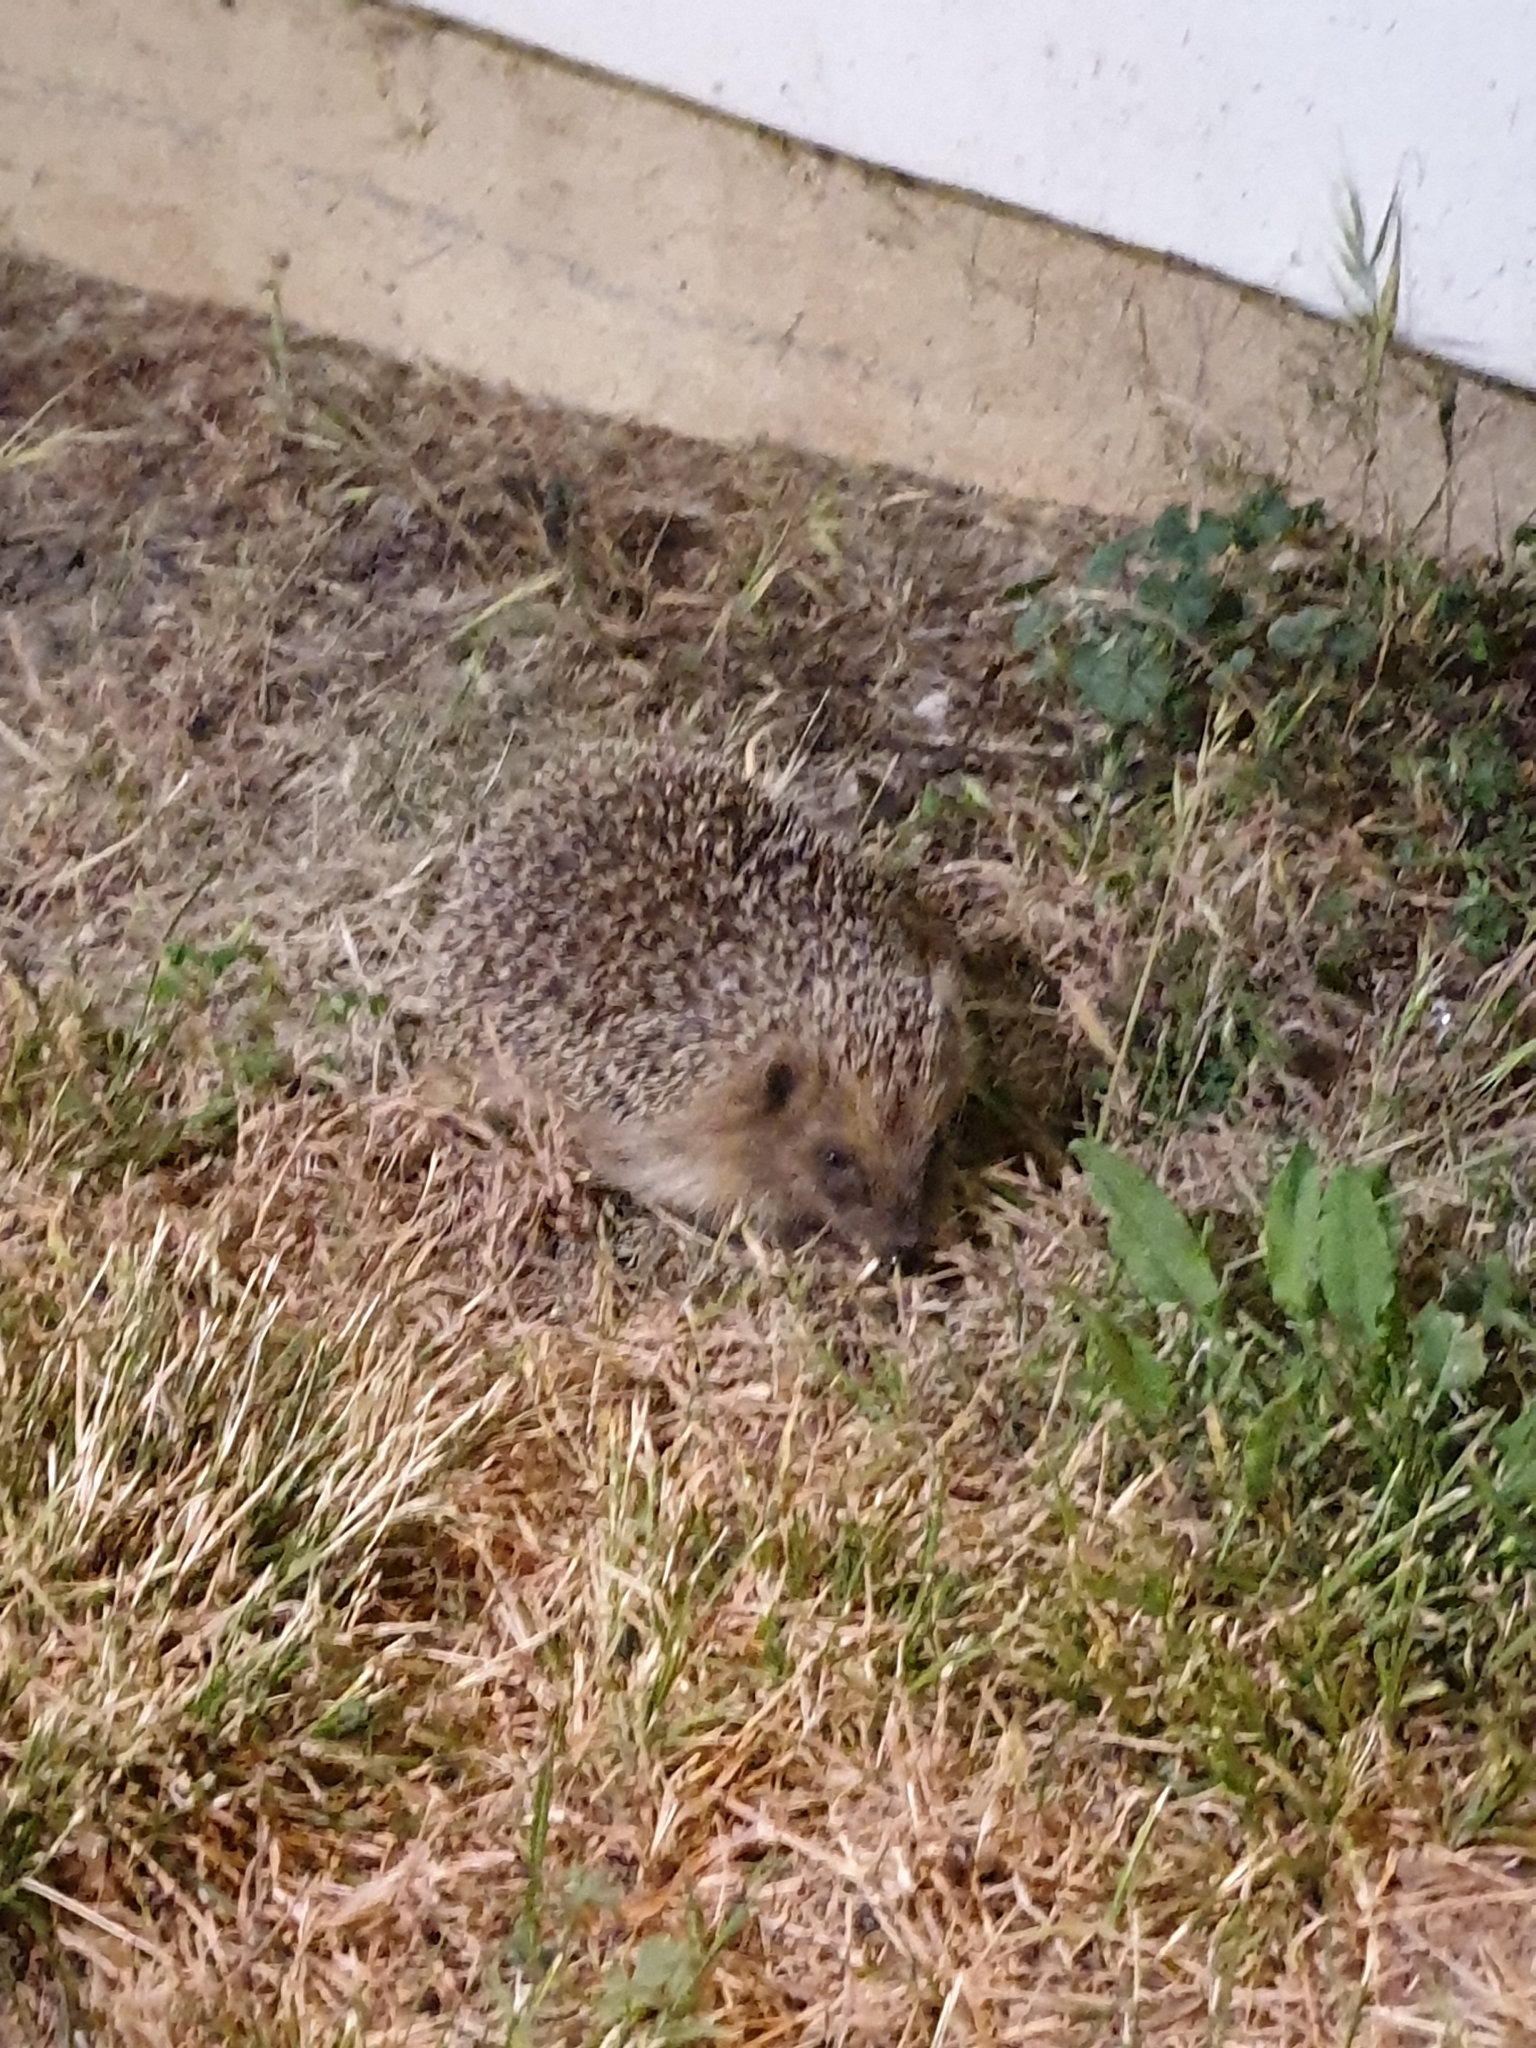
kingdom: Animalia
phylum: Chordata
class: Mammalia
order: Erinaceomorpha
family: Erinaceidae
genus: Erinaceus
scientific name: Erinaceus europaeus
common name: West european hedgehog
